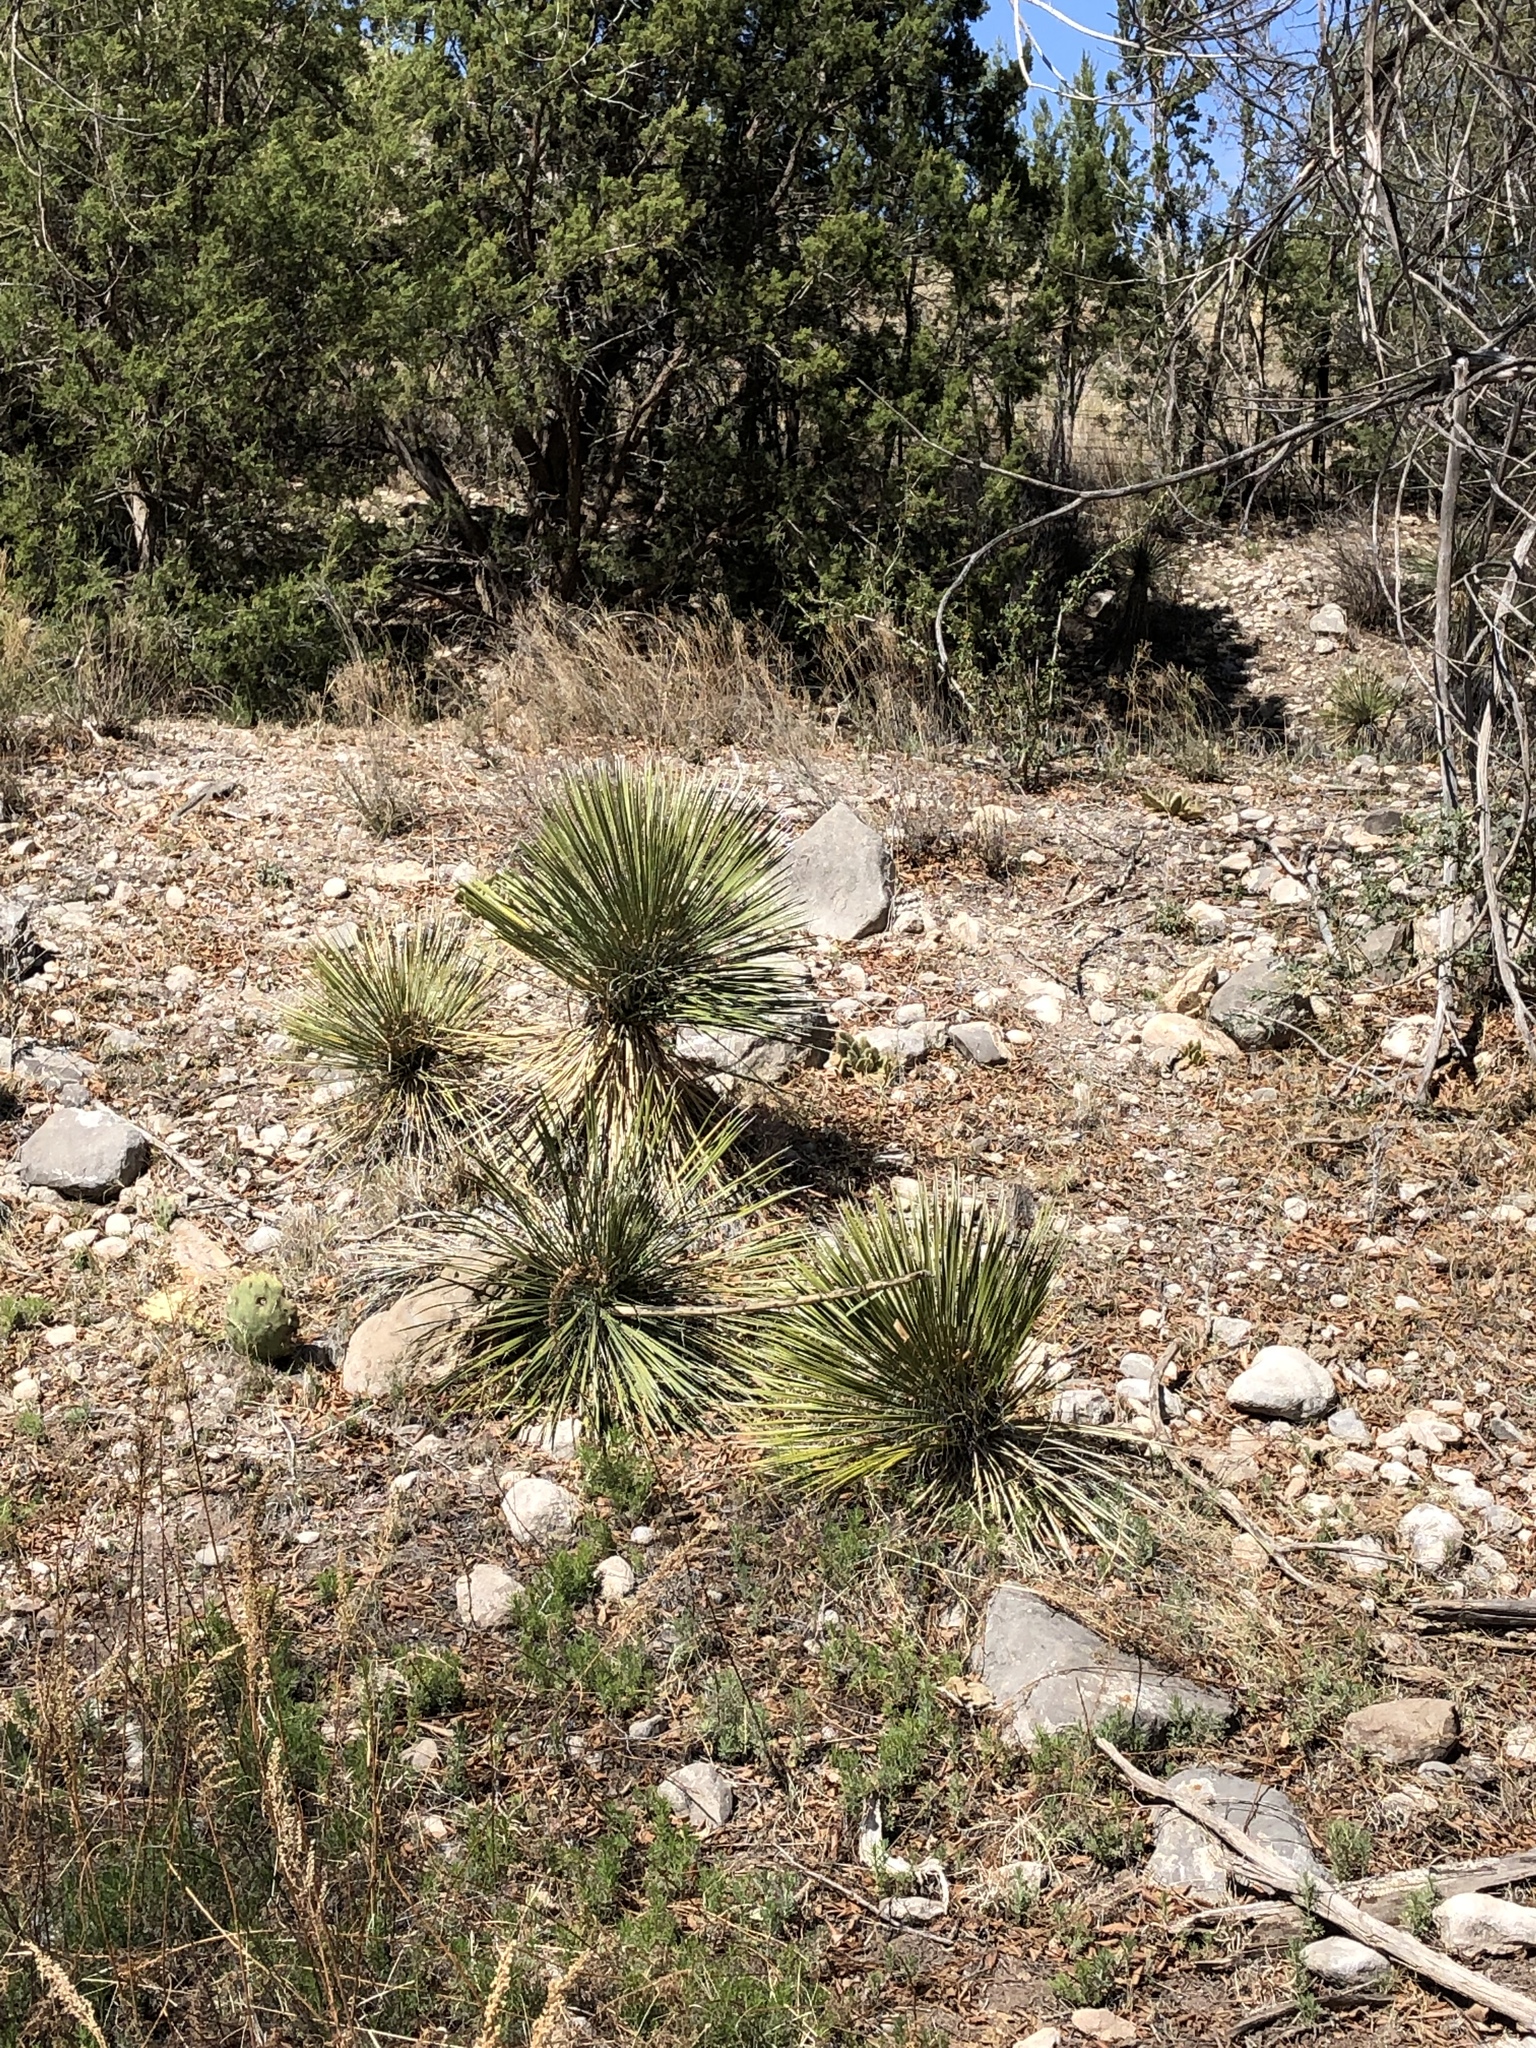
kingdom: Plantae
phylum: Tracheophyta
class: Liliopsida
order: Asparagales
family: Asparagaceae
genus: Yucca
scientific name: Yucca elata
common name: Palmella
